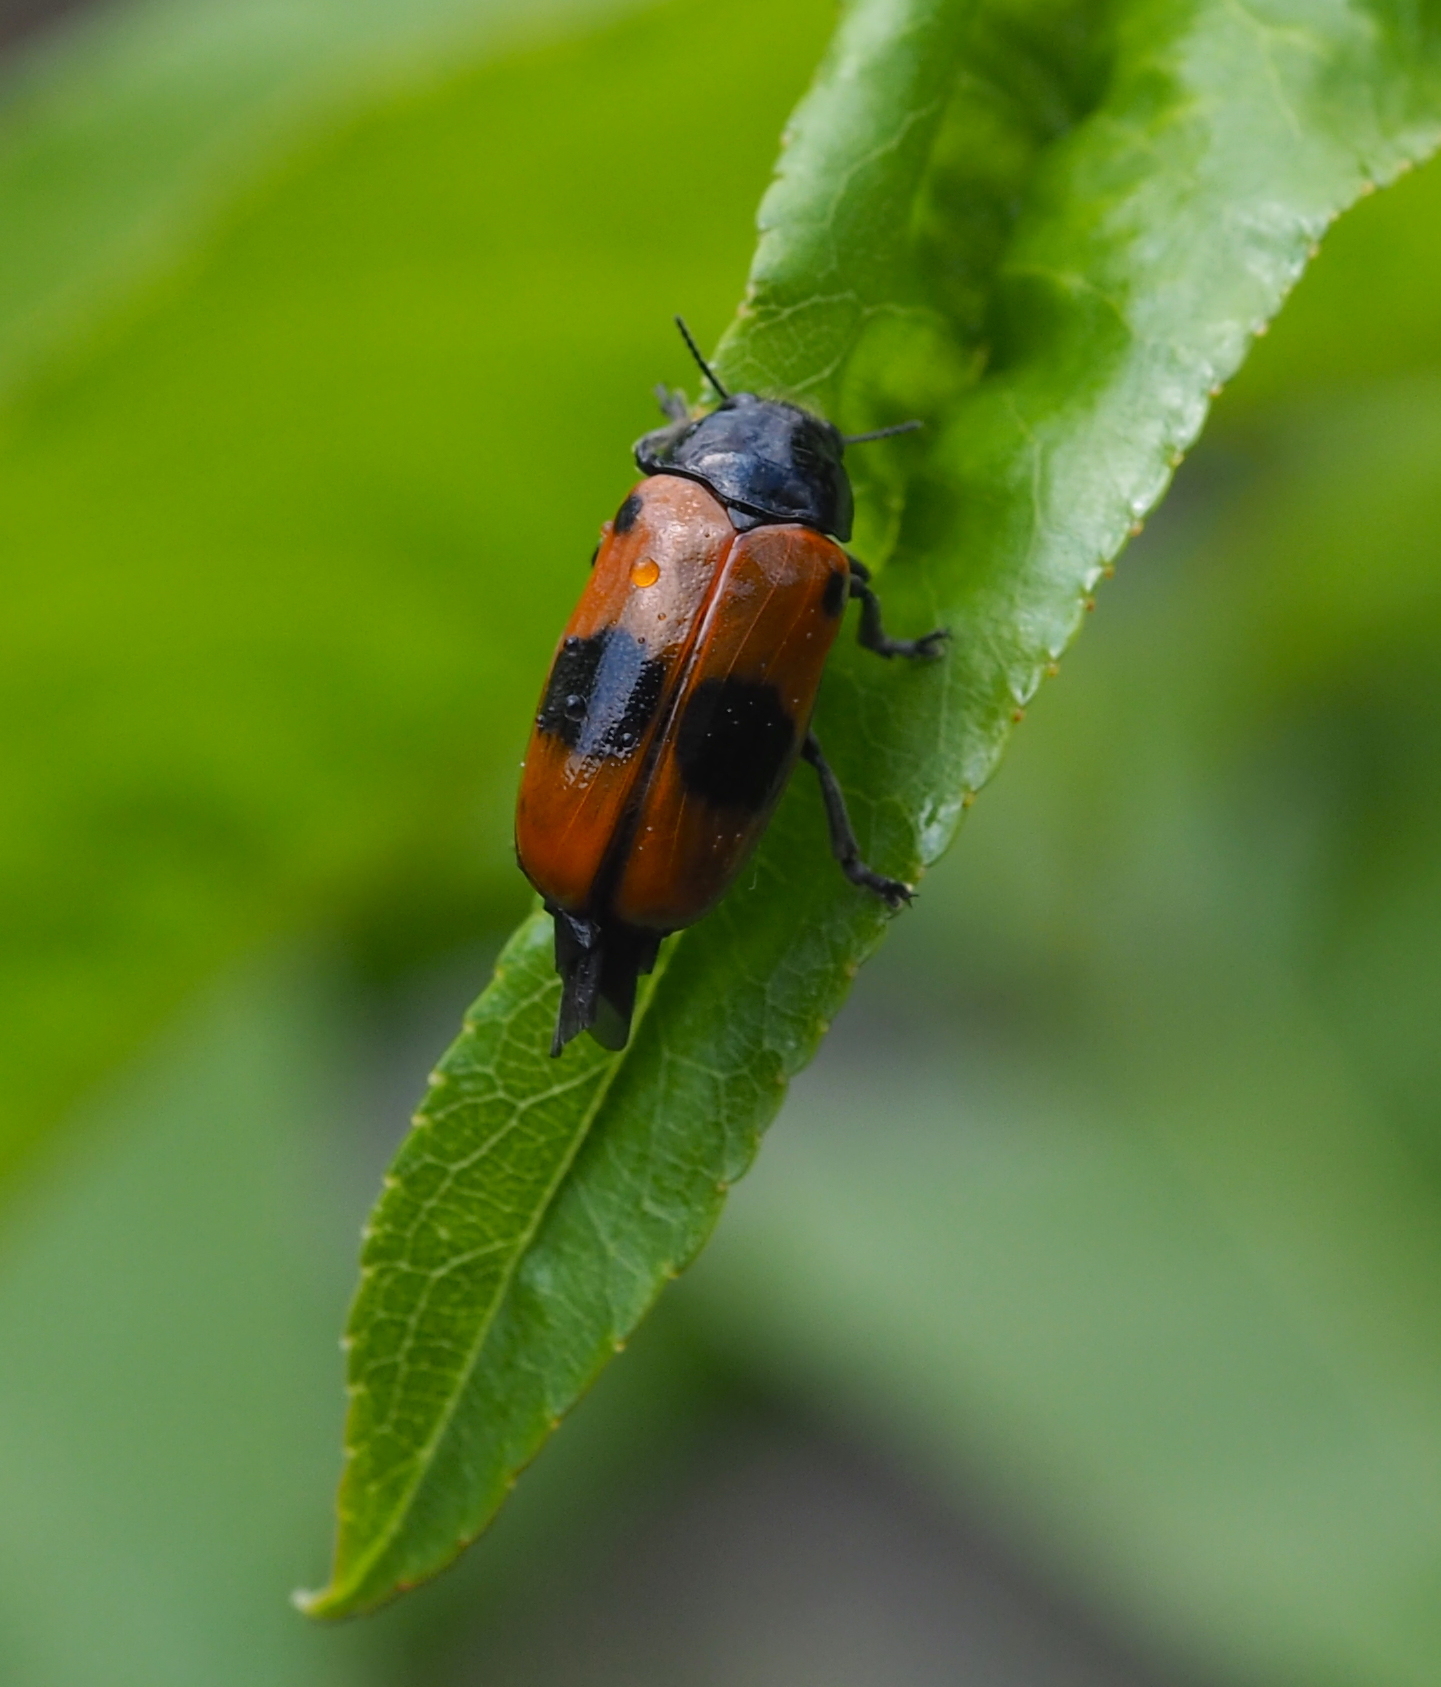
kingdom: Animalia
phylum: Arthropoda
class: Insecta
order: Coleoptera
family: Chrysomelidae
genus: Clytra
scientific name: Clytra laeviuscula
